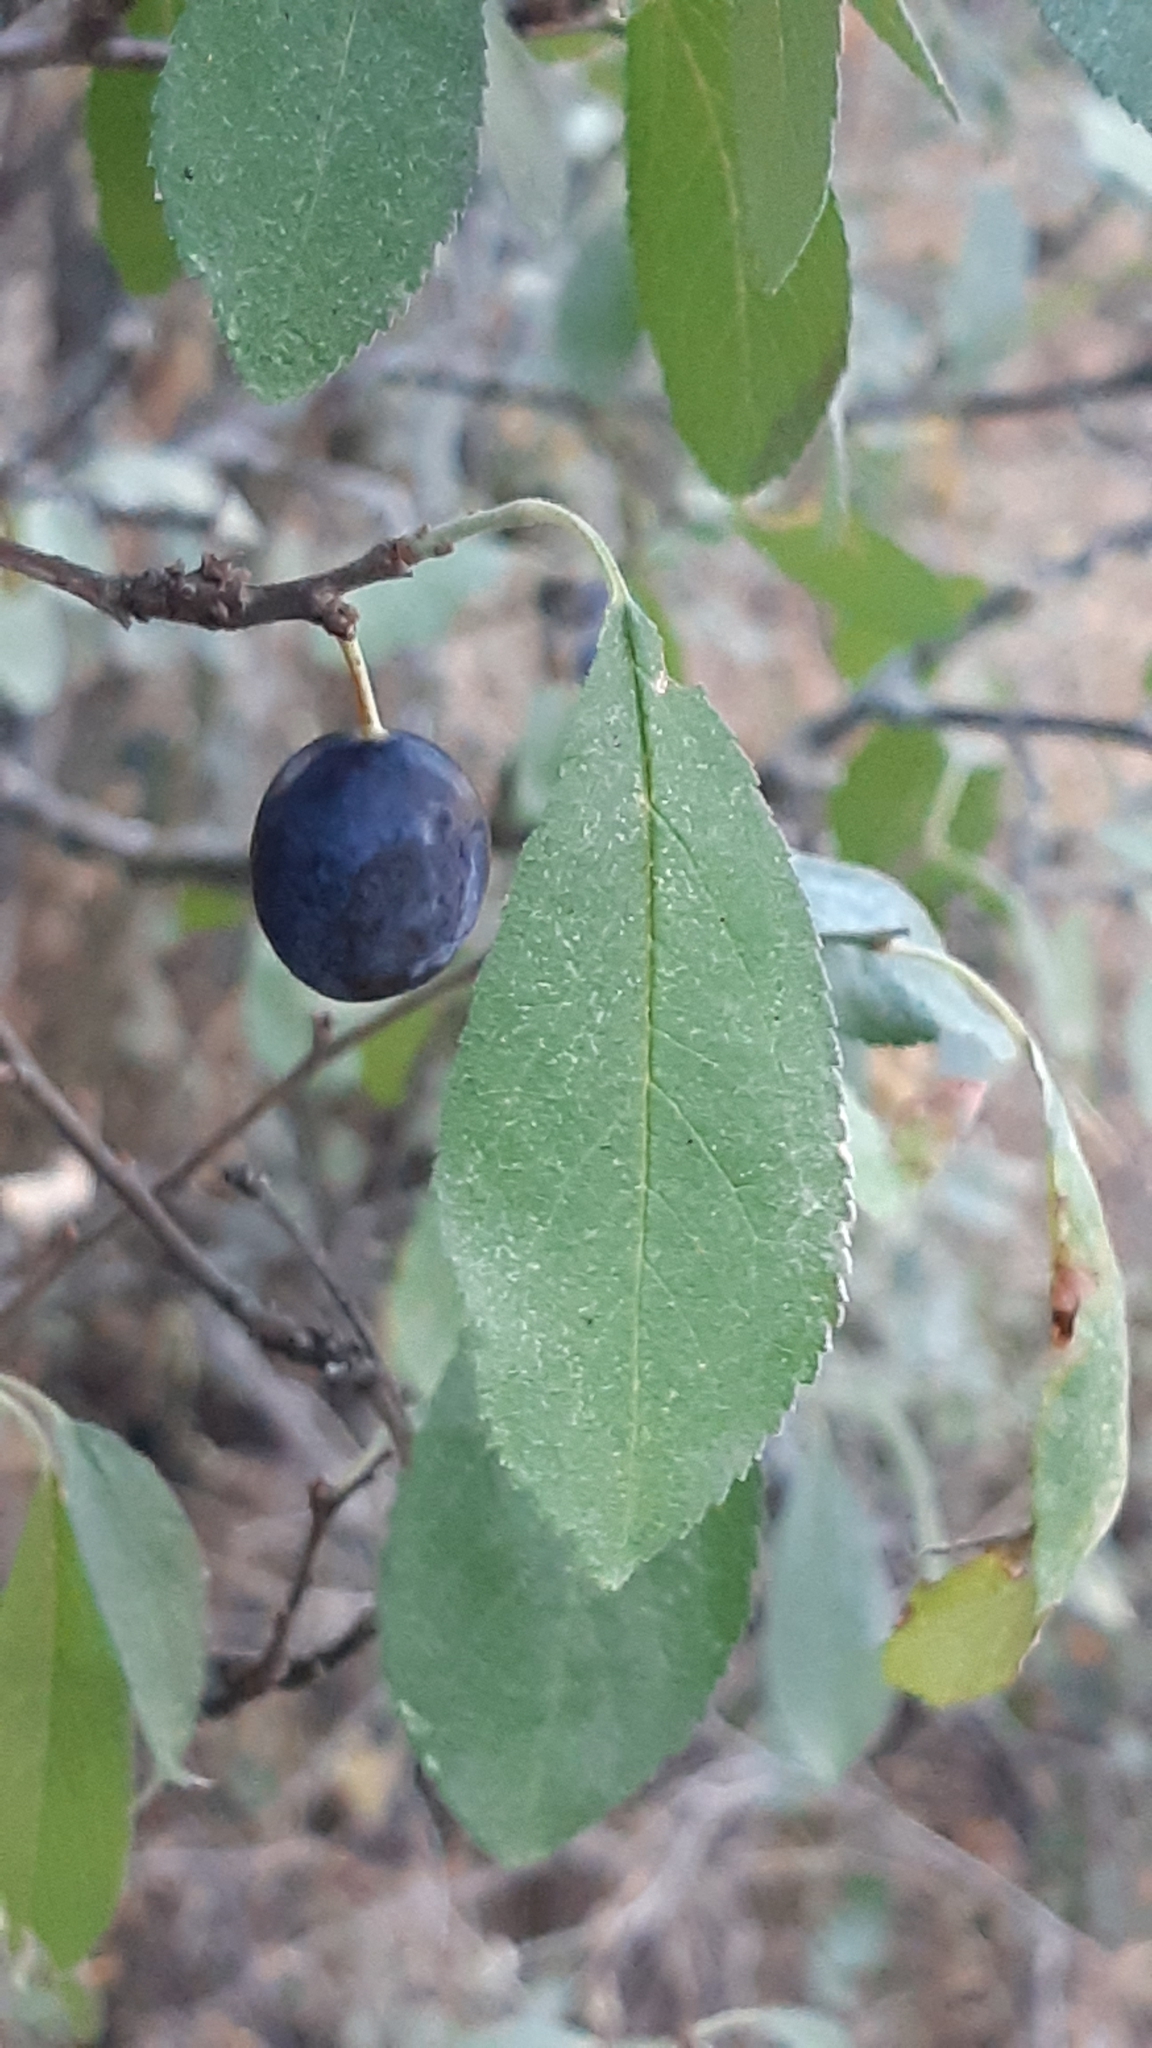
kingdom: Plantae
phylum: Tracheophyta
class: Magnoliopsida
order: Rosales
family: Rosaceae
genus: Prunus
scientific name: Prunus spinosa
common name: Blackthorn
